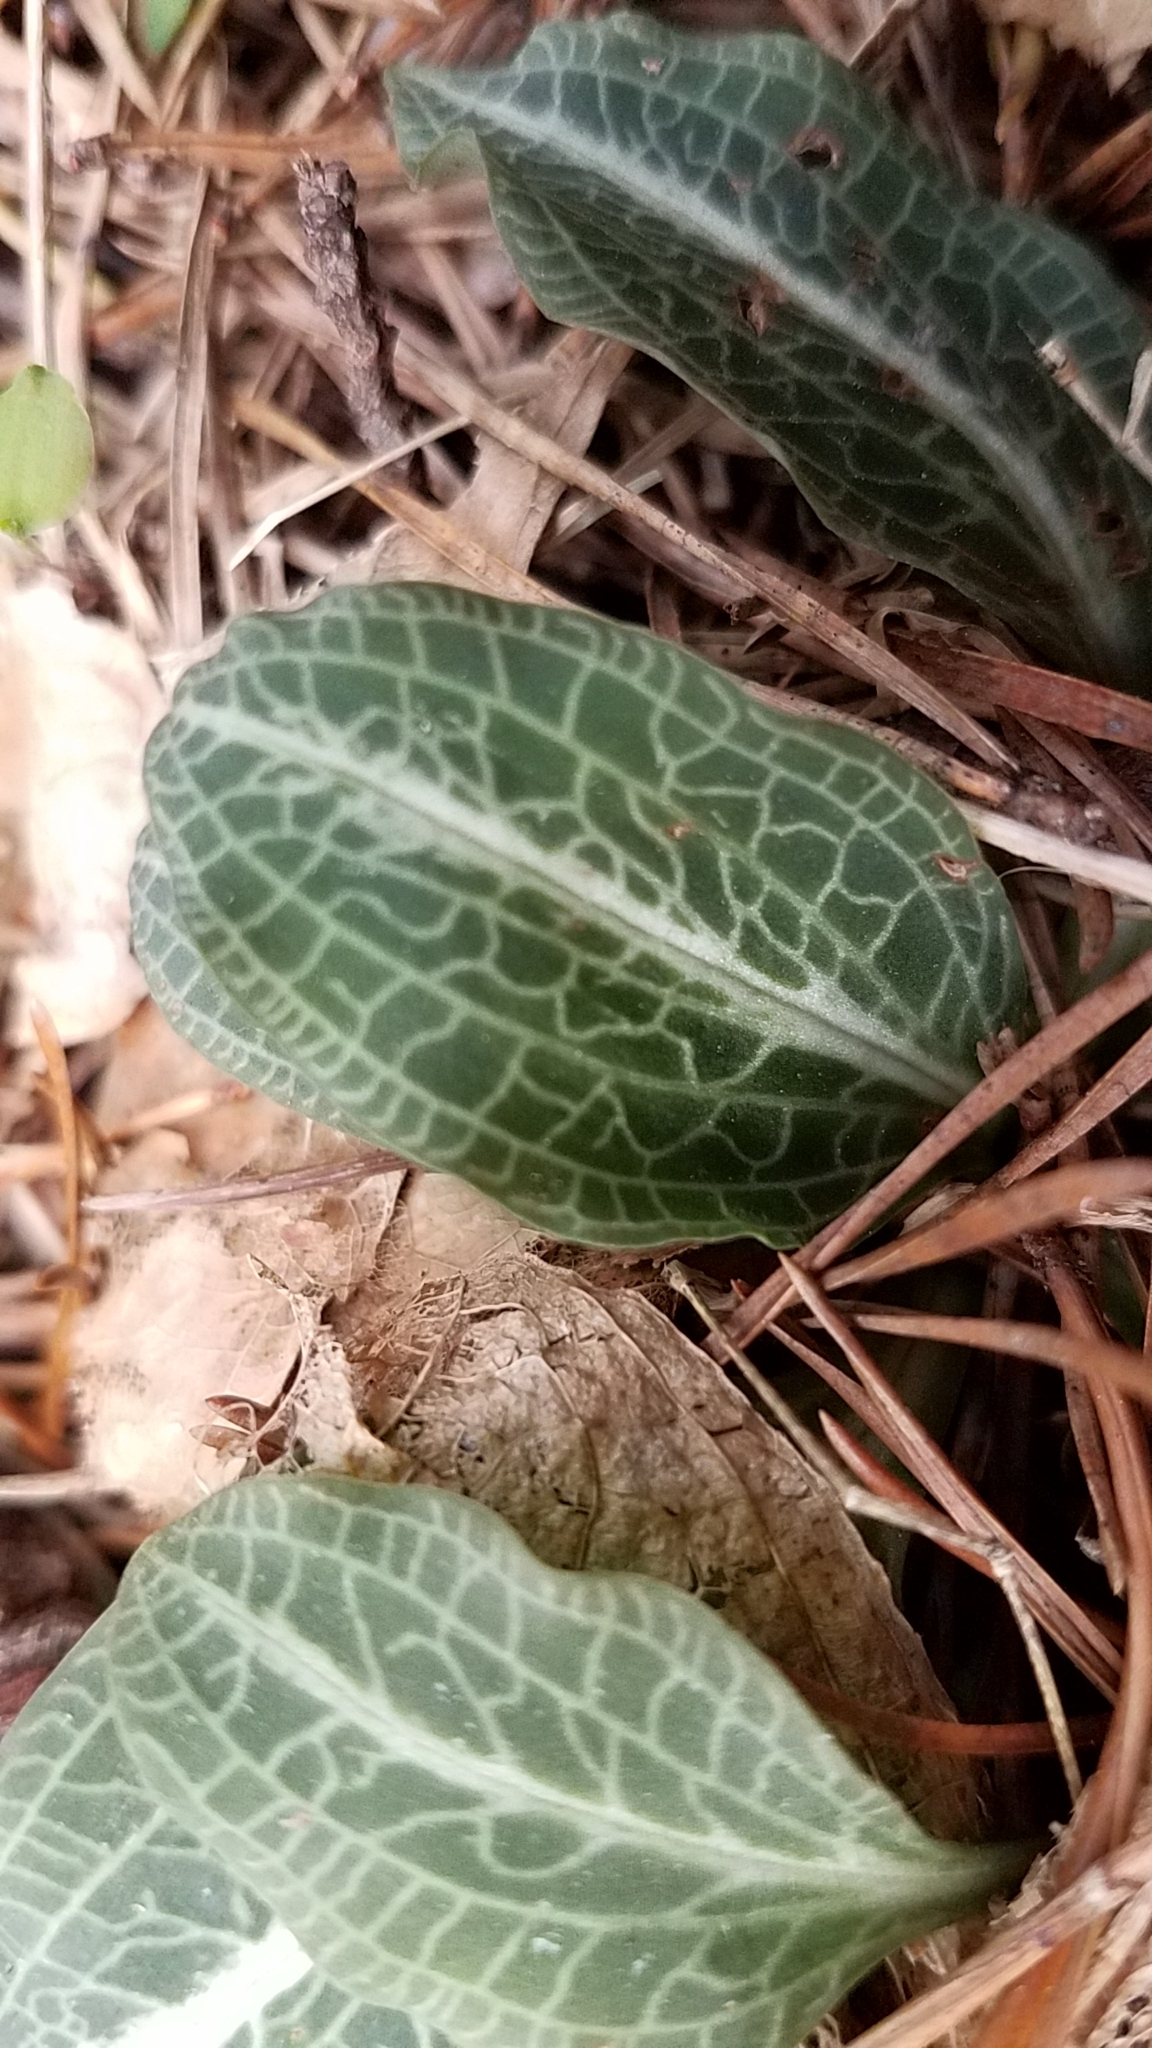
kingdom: Plantae
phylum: Tracheophyta
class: Liliopsida
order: Asparagales
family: Orchidaceae
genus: Goodyera
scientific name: Goodyera pubescens
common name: Downy rattlesnake-plantain
